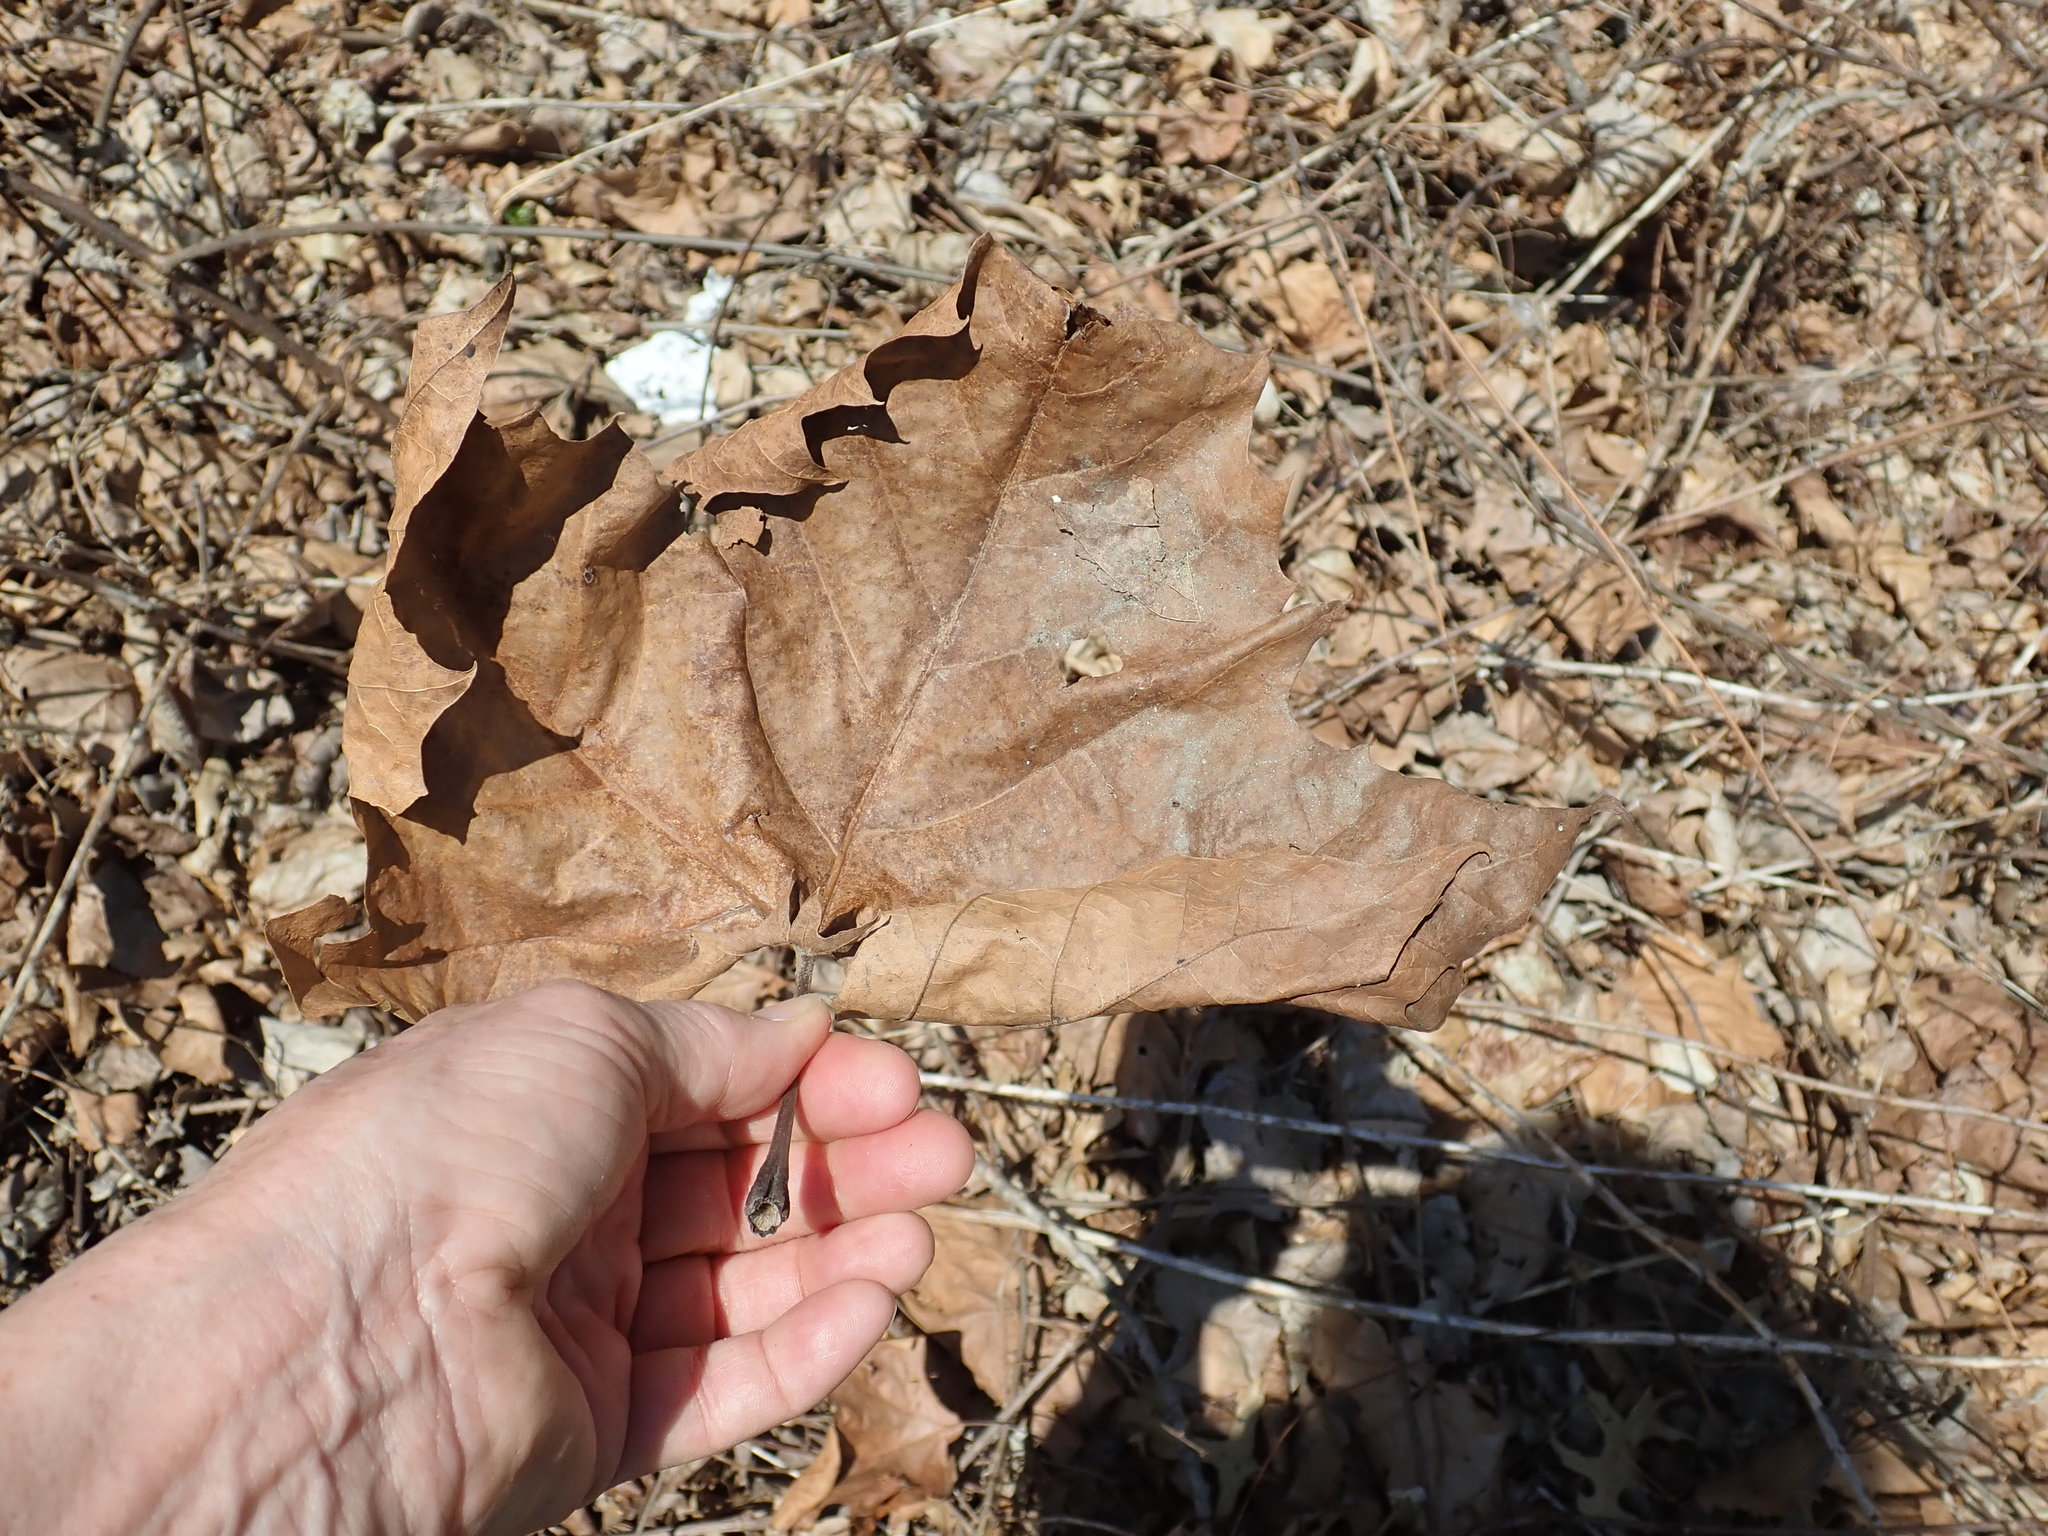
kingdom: Plantae
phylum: Tracheophyta
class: Magnoliopsida
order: Proteales
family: Platanaceae
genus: Platanus
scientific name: Platanus occidentalis
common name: American sycamore
